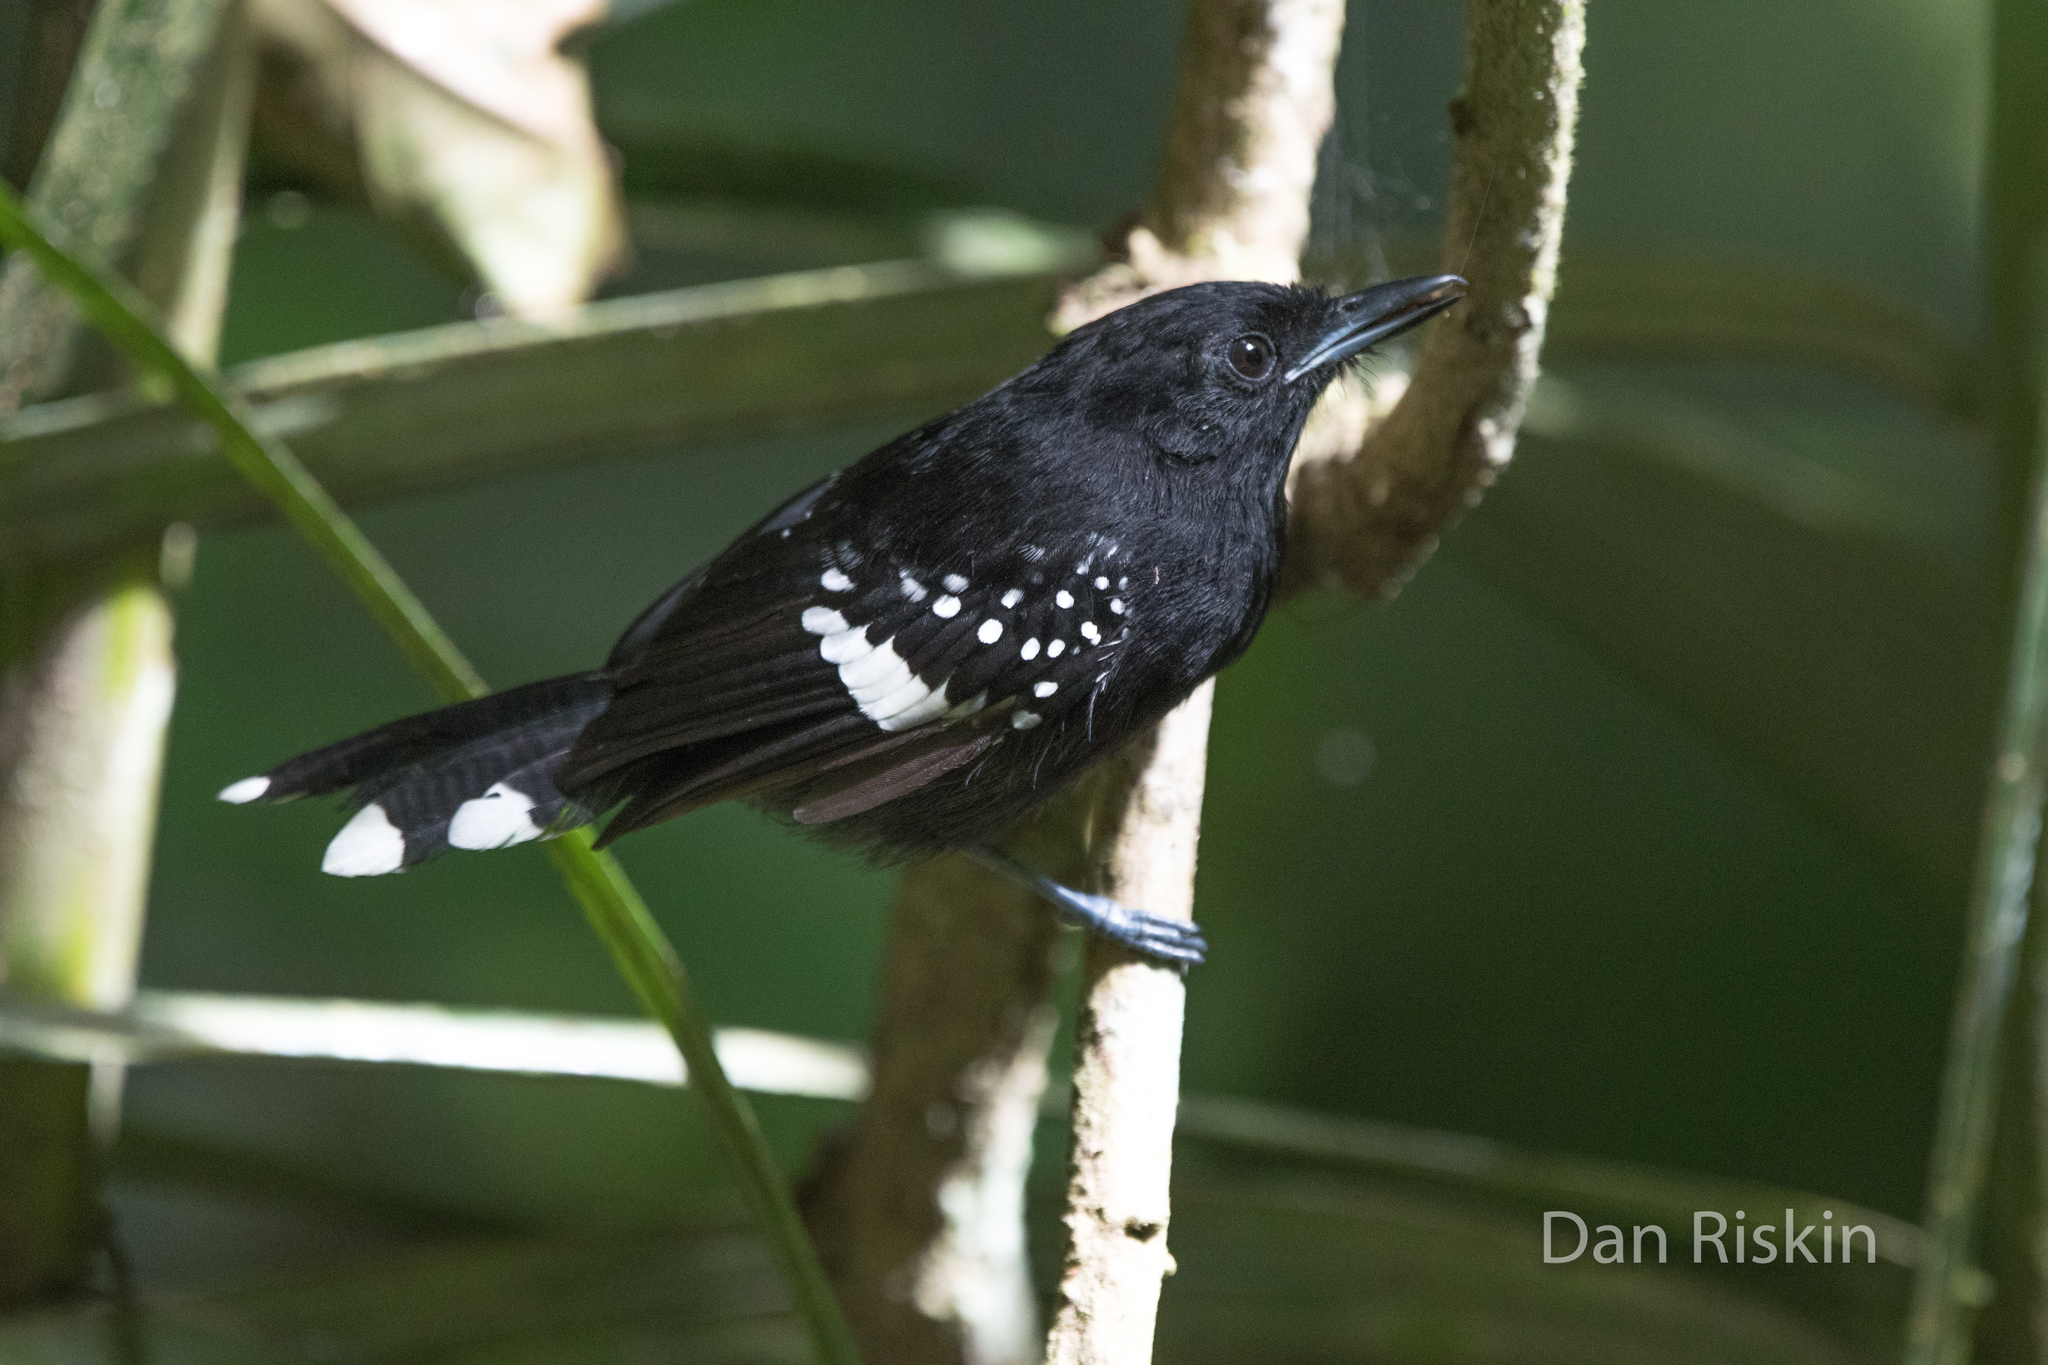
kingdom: Animalia
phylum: Chordata
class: Aves
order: Passeriformes
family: Thamnophilidae
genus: Microrhopias
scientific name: Microrhopias quixensis
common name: Dot-winged antwren
